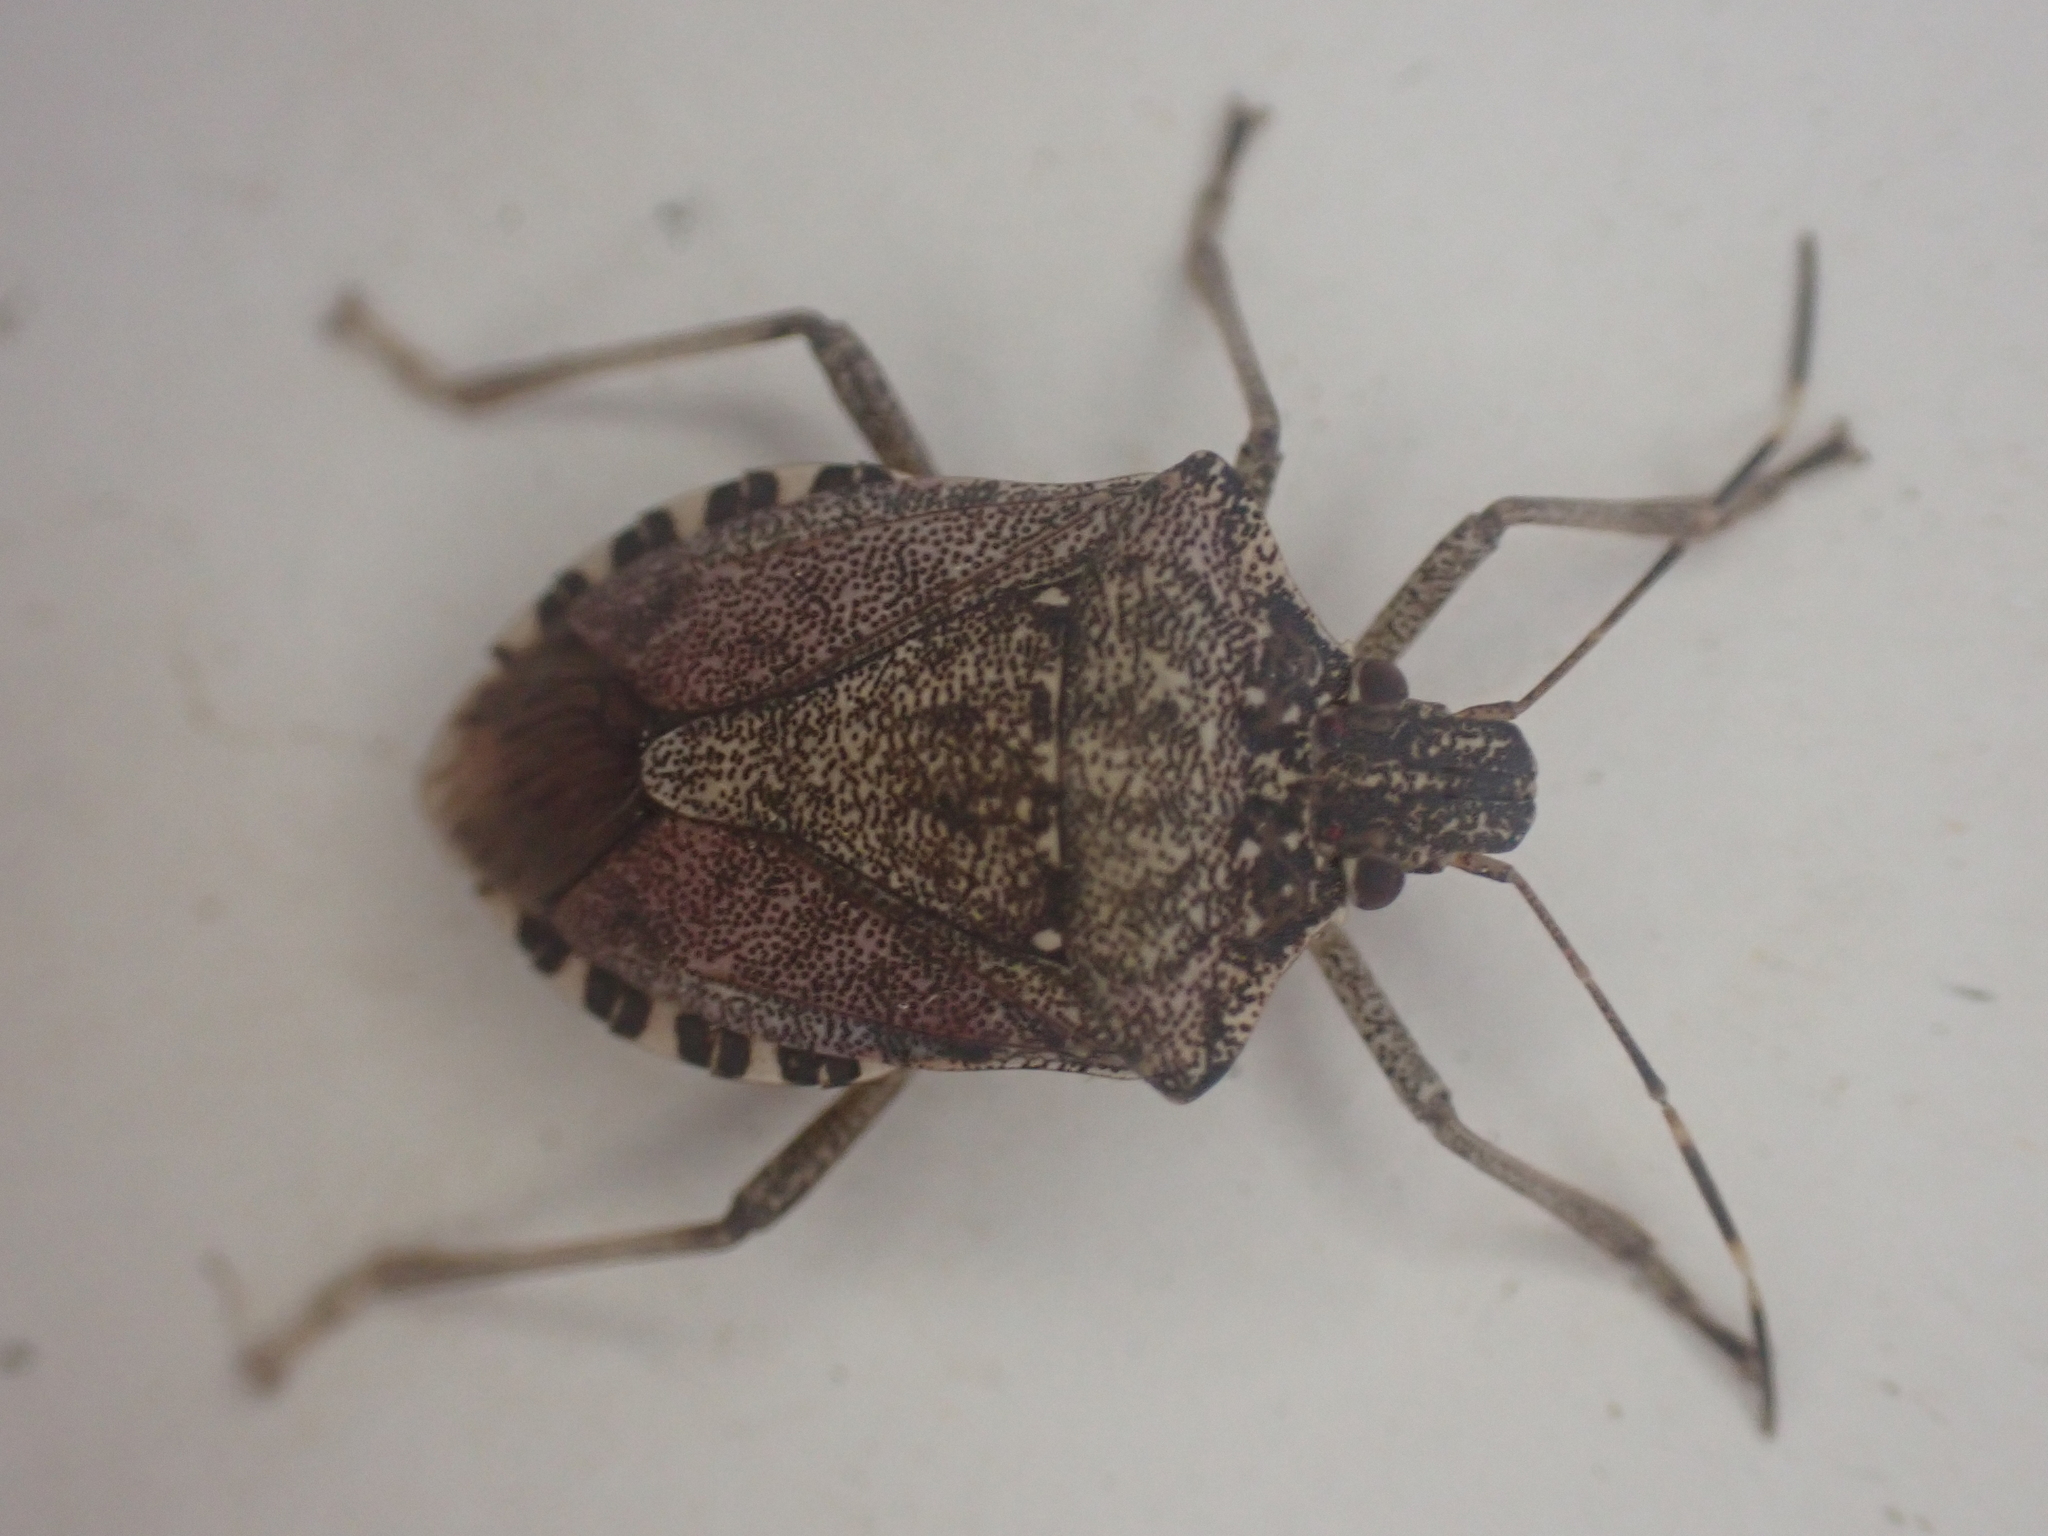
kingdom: Animalia
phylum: Arthropoda
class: Insecta
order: Hemiptera
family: Pentatomidae
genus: Halyomorpha
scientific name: Halyomorpha halys
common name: Brown marmorated stink bug
